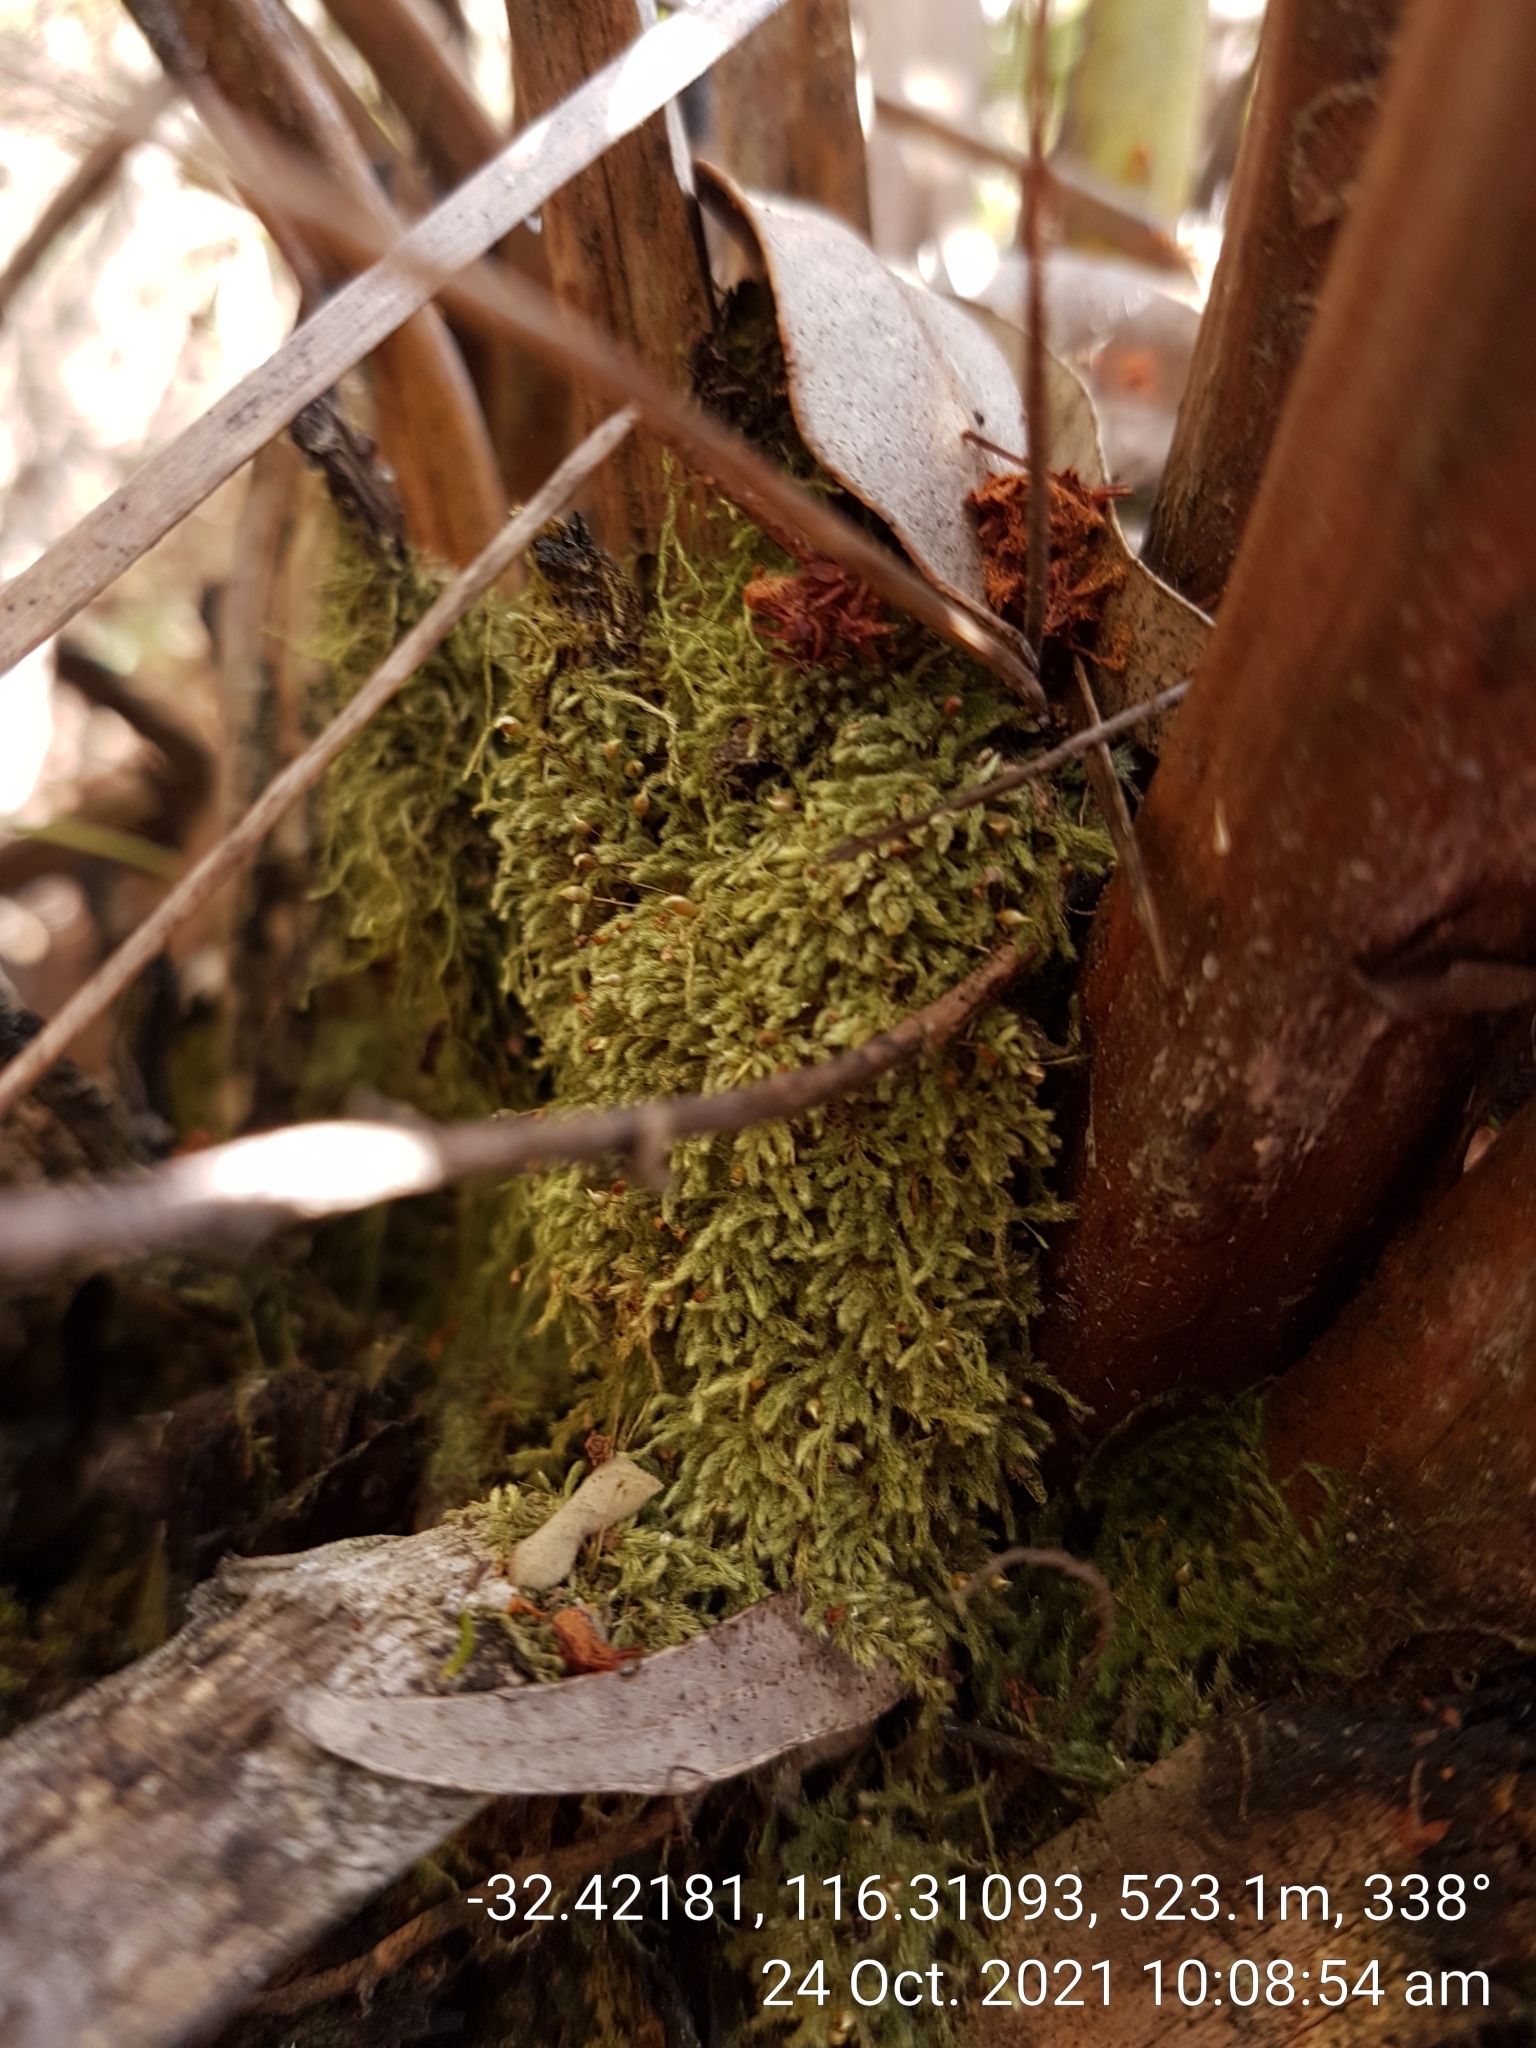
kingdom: Plantae
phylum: Bryophyta
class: Bryopsida
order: Hypnales
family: Fabroniaceae
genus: Fabronia
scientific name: Fabronia hampeana
